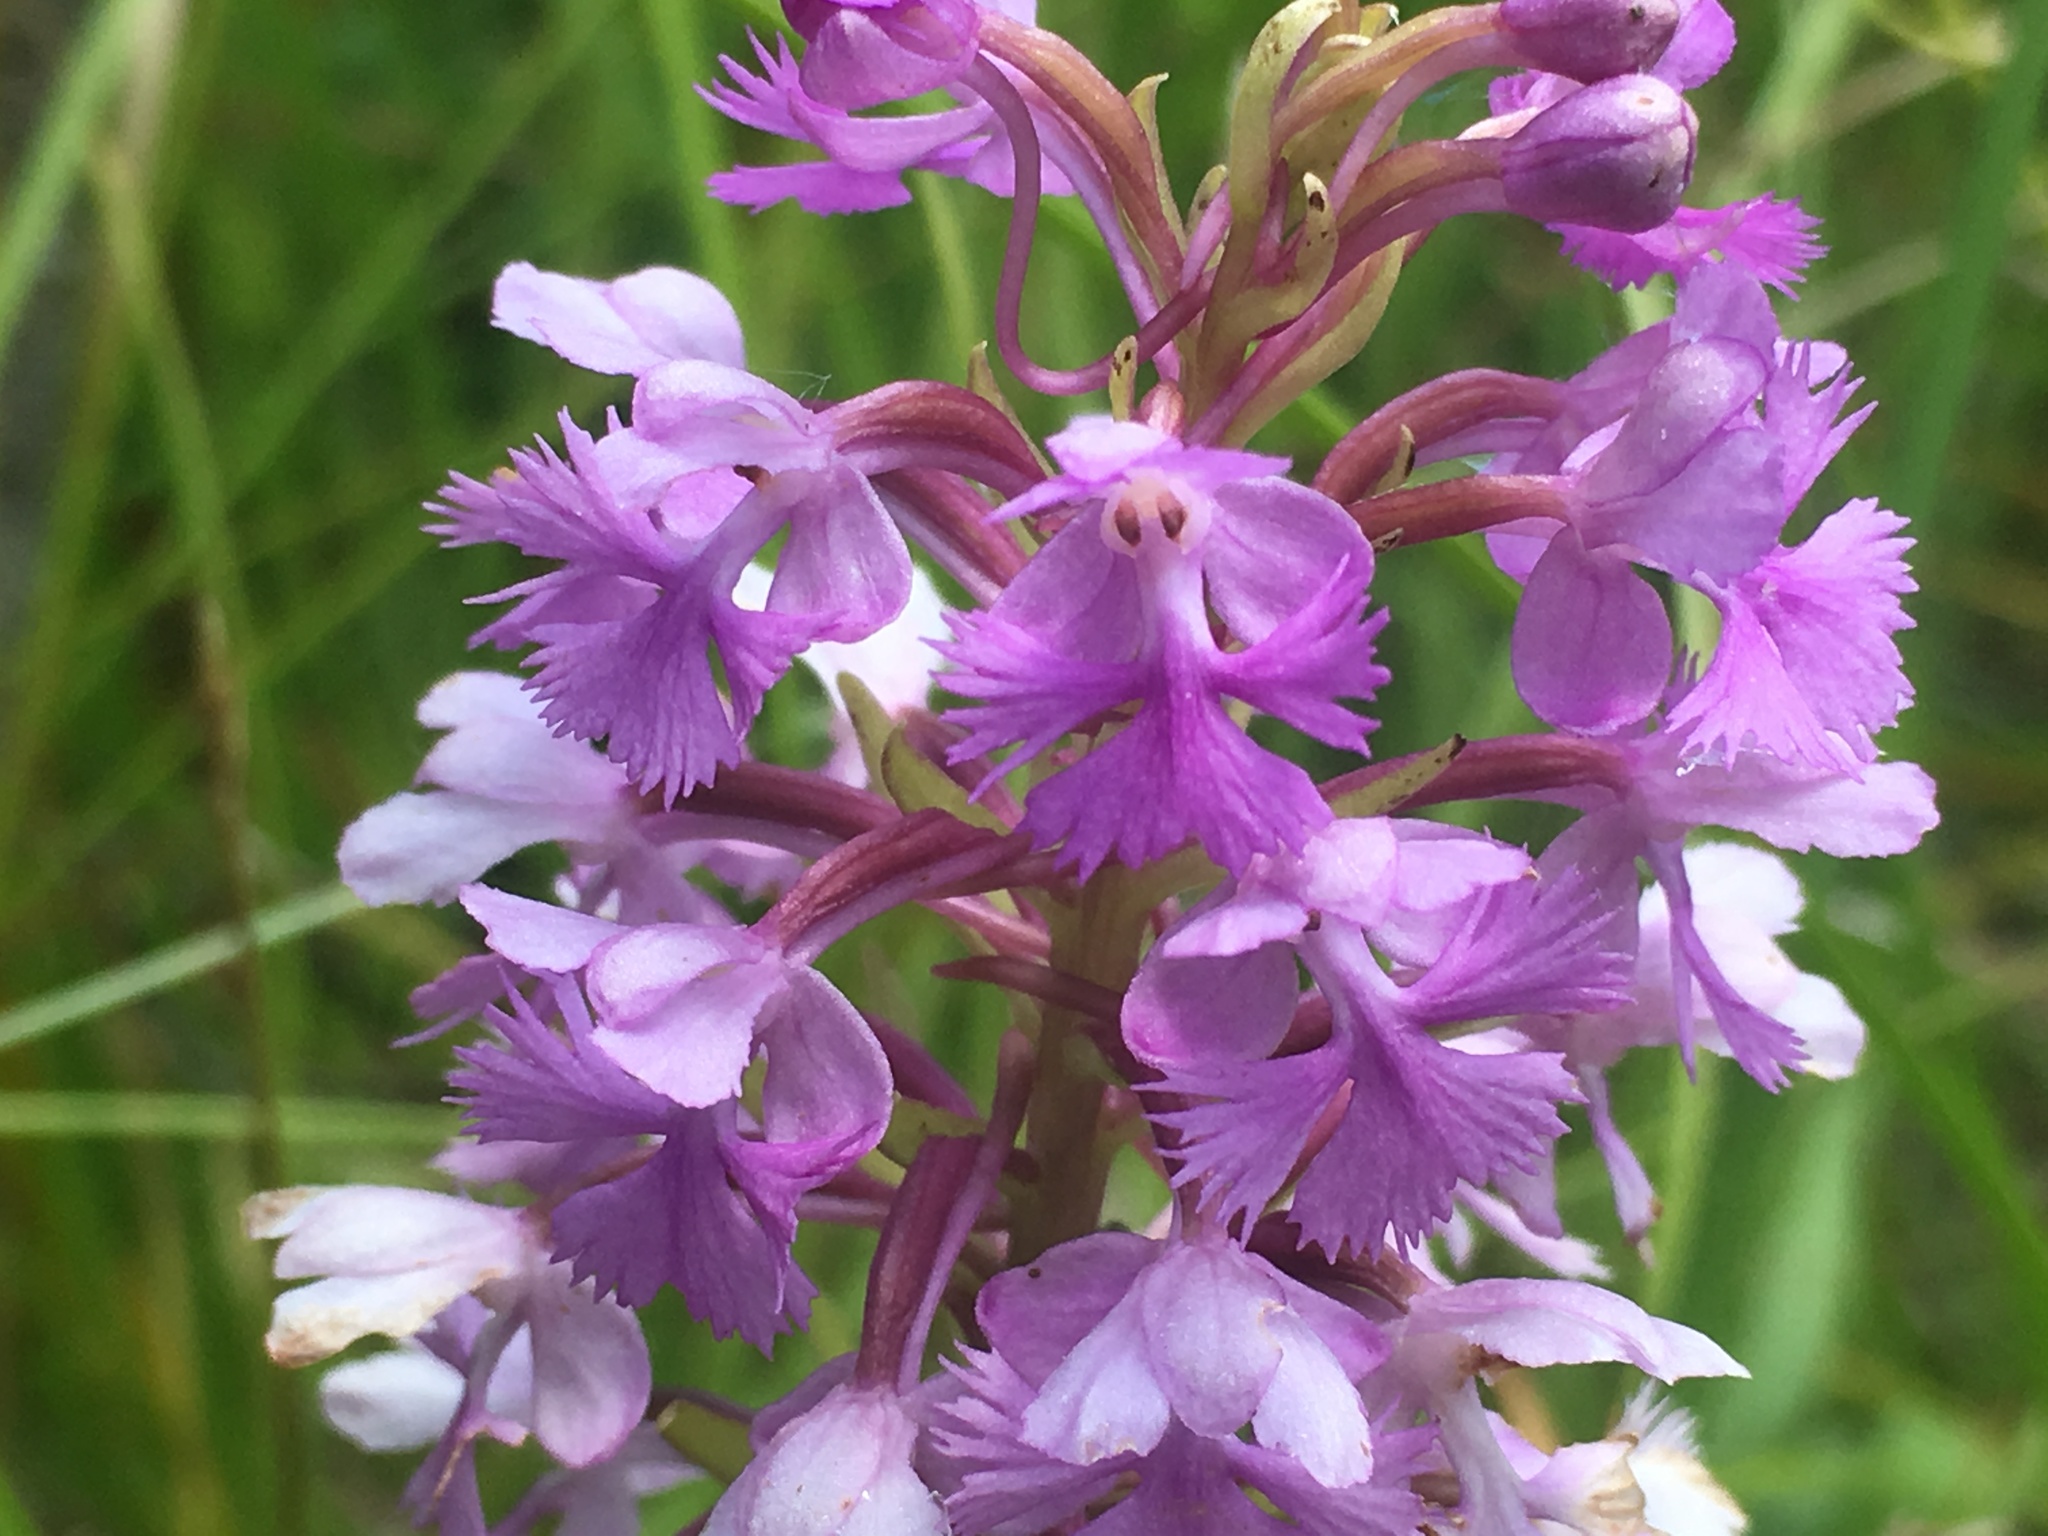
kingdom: Plantae
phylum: Tracheophyta
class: Liliopsida
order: Asparagales
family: Orchidaceae
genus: Platanthera
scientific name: Platanthera psycodes
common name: Lesser purple fringed orchid
